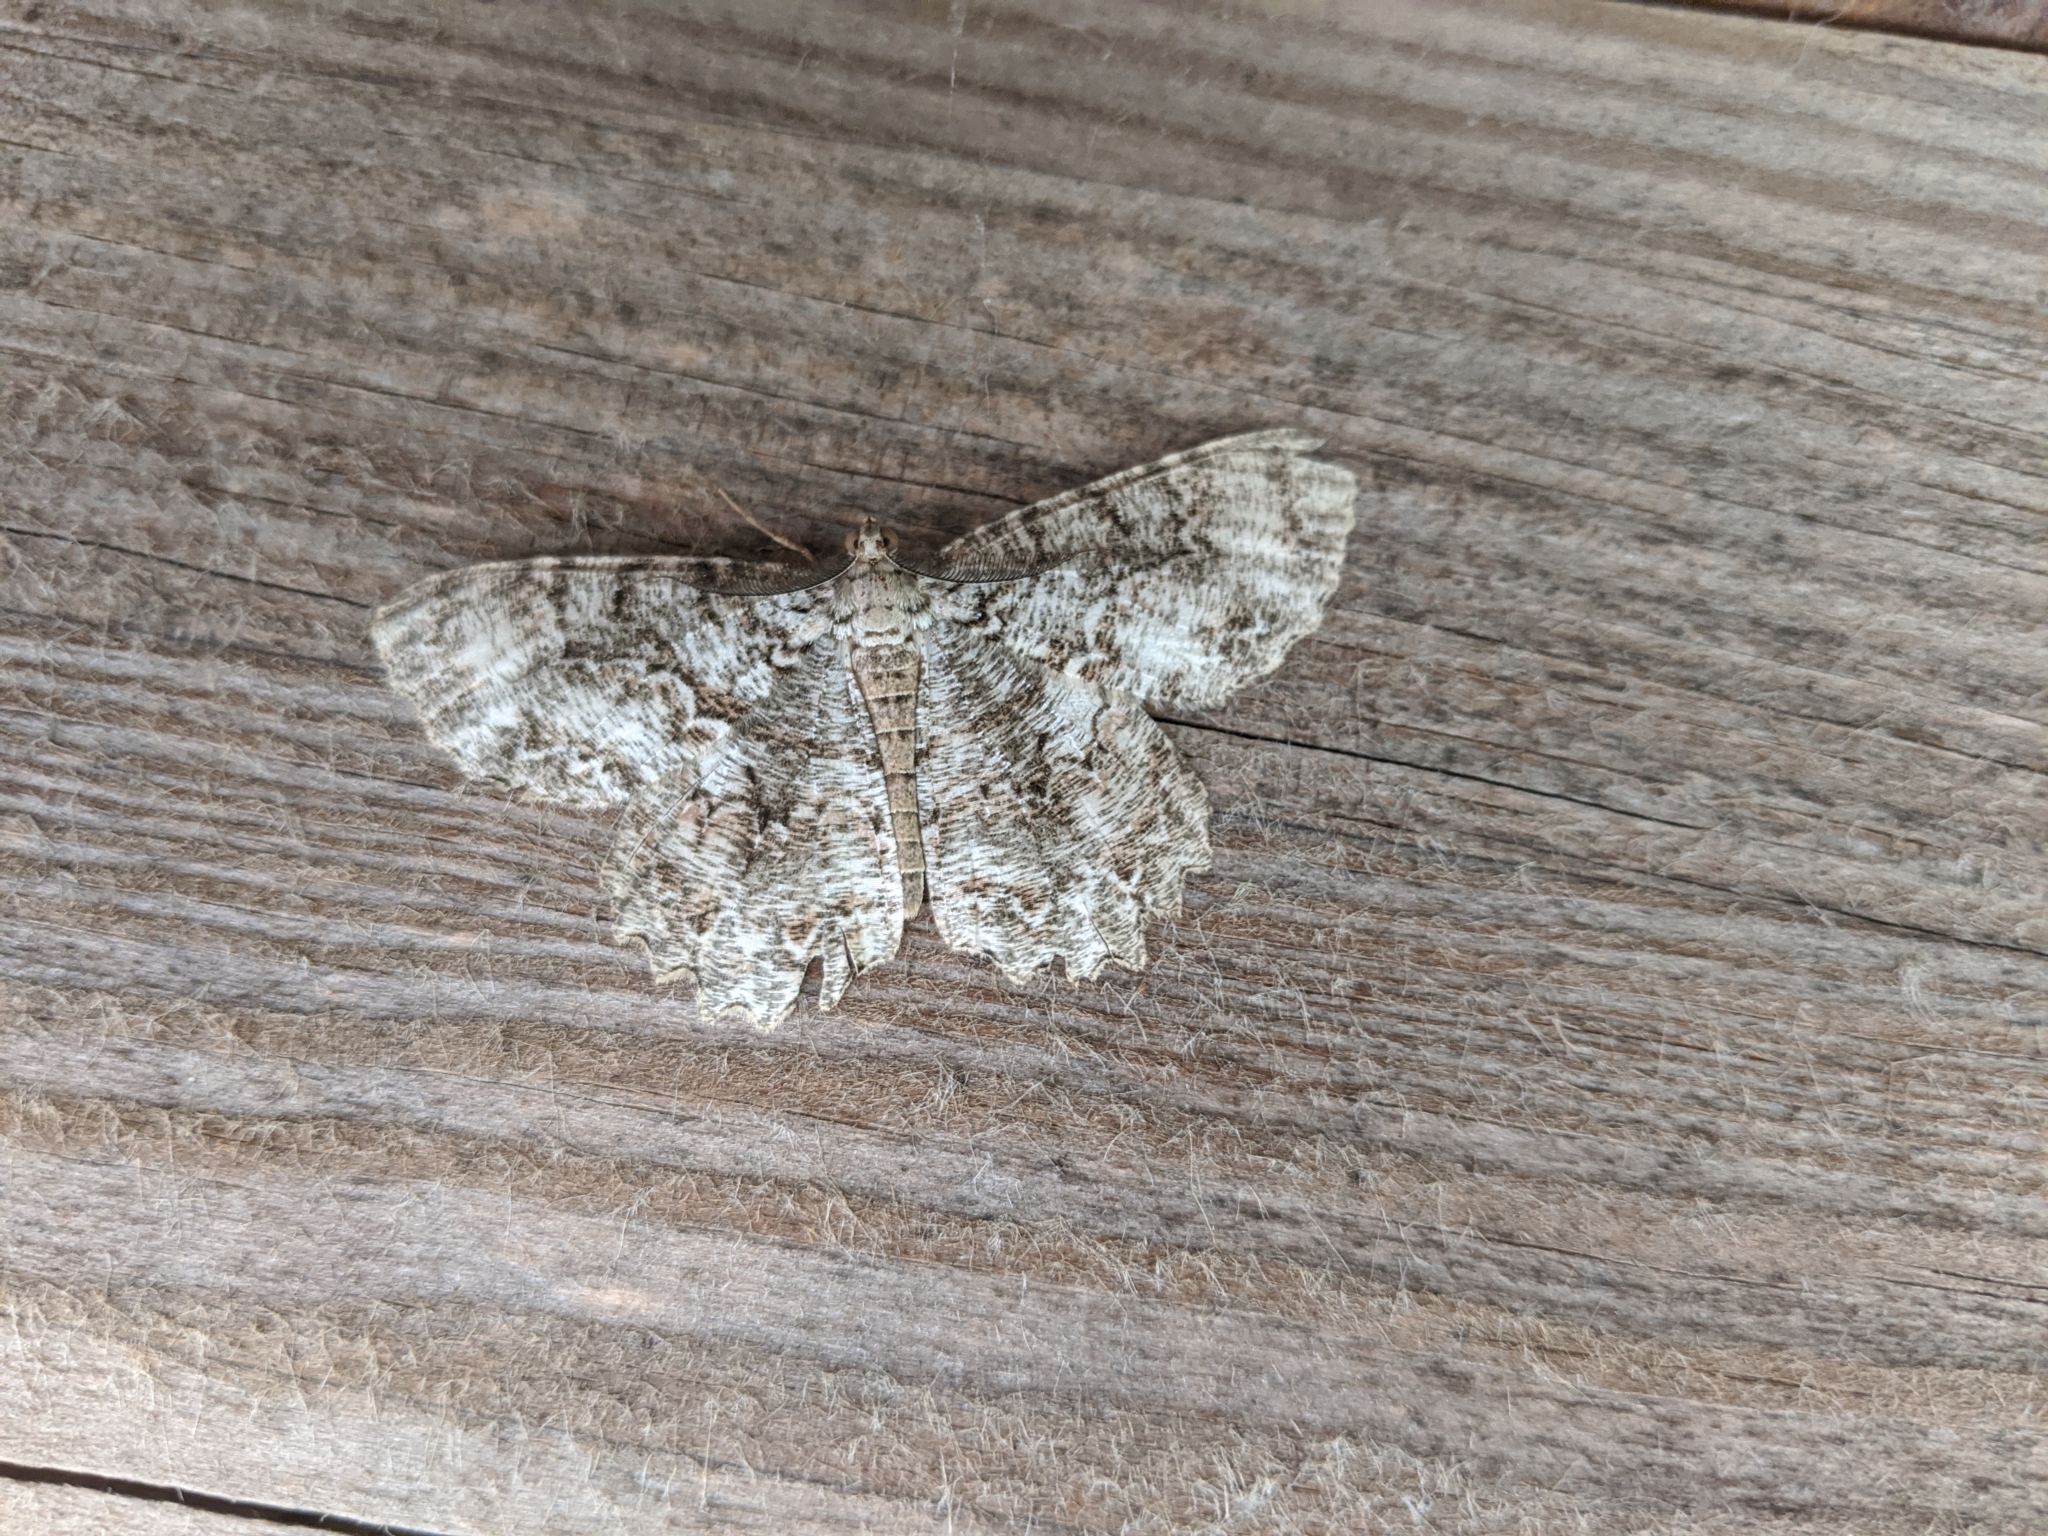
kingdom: Animalia
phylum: Arthropoda
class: Insecta
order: Lepidoptera
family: Geometridae
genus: Epimecis
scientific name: Epimecis hortaria
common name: Tulip-tree beauty
